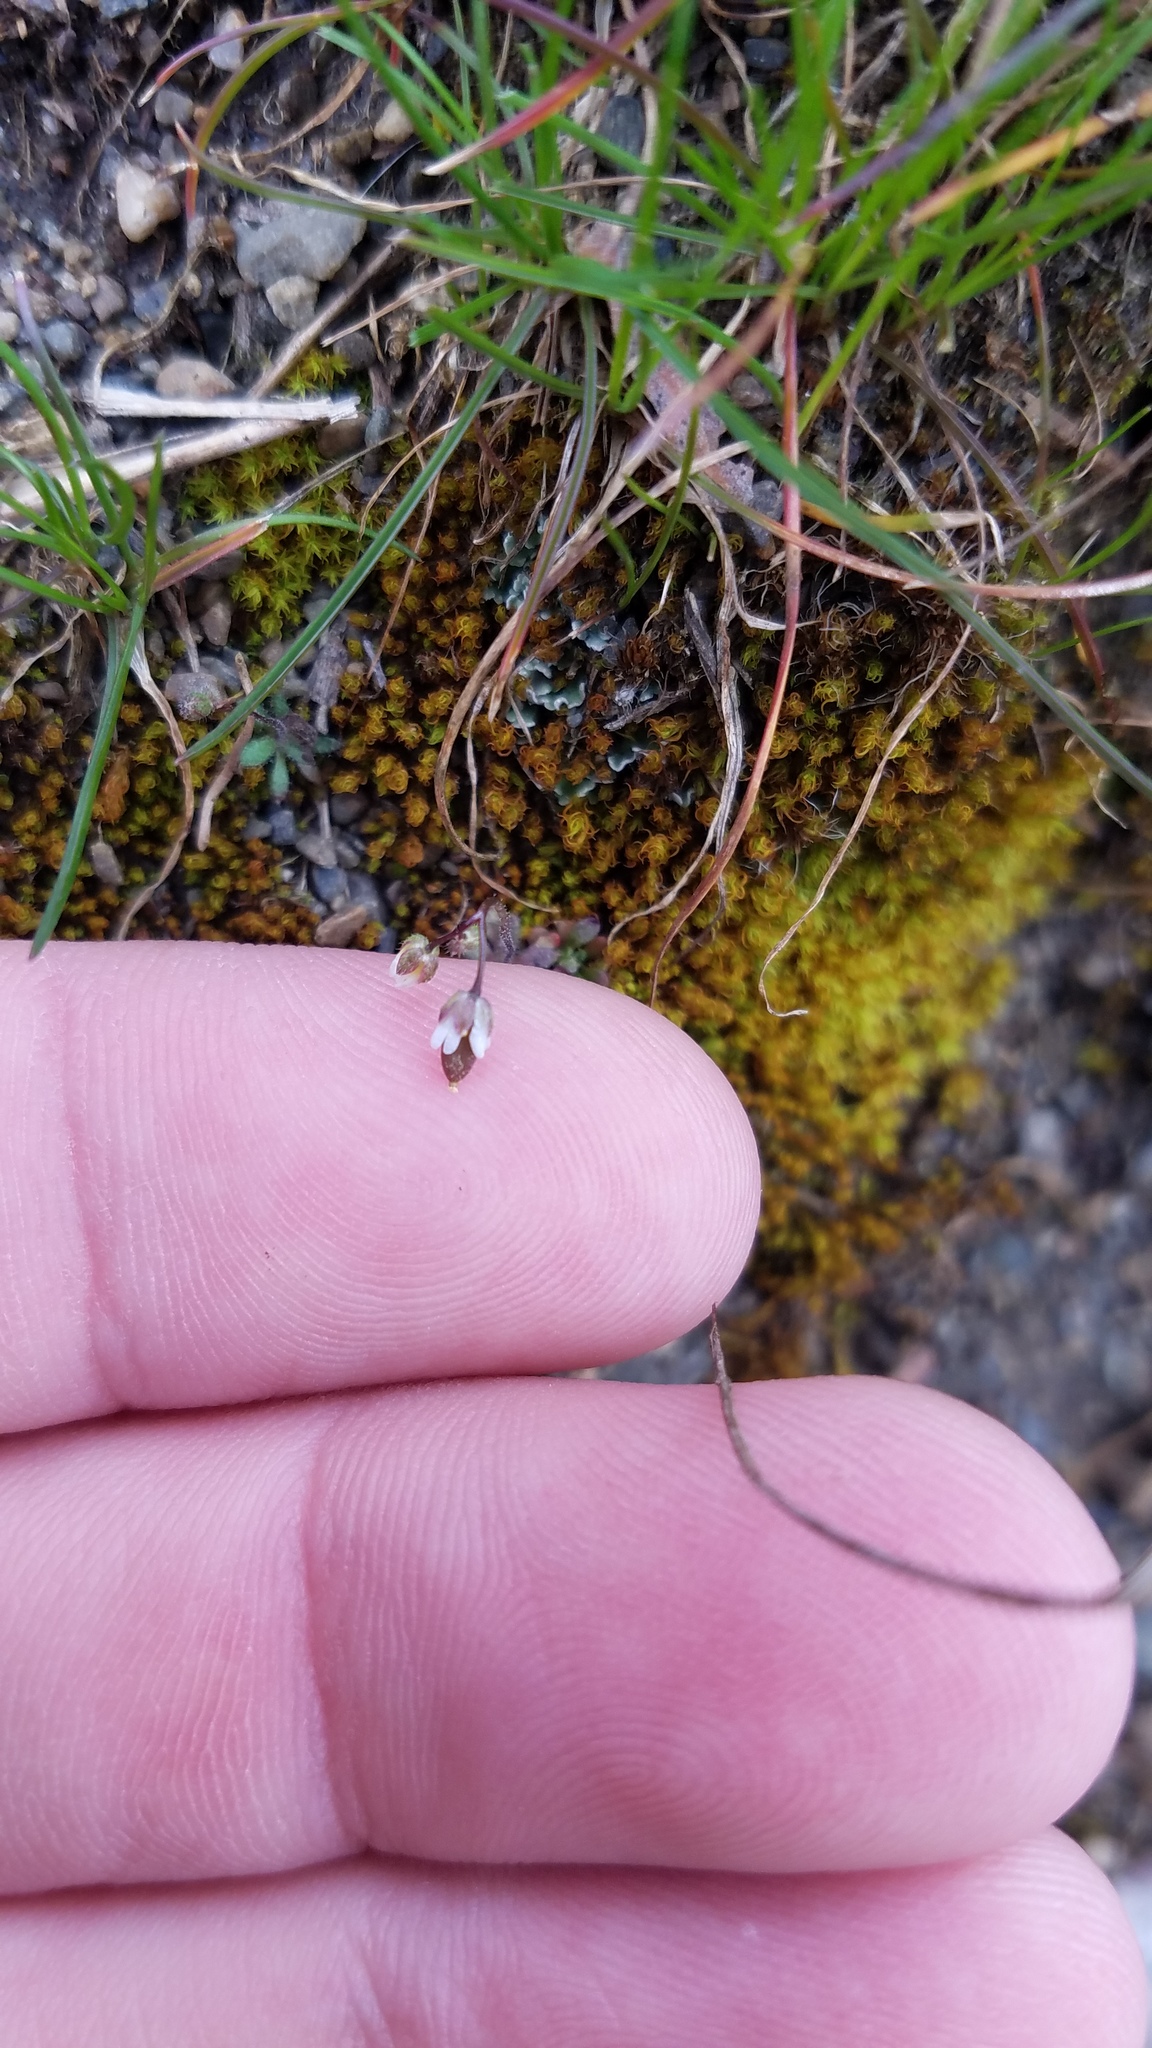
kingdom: Plantae
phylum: Tracheophyta
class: Magnoliopsida
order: Brassicales
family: Brassicaceae
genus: Draba
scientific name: Draba verna
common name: Spring draba
